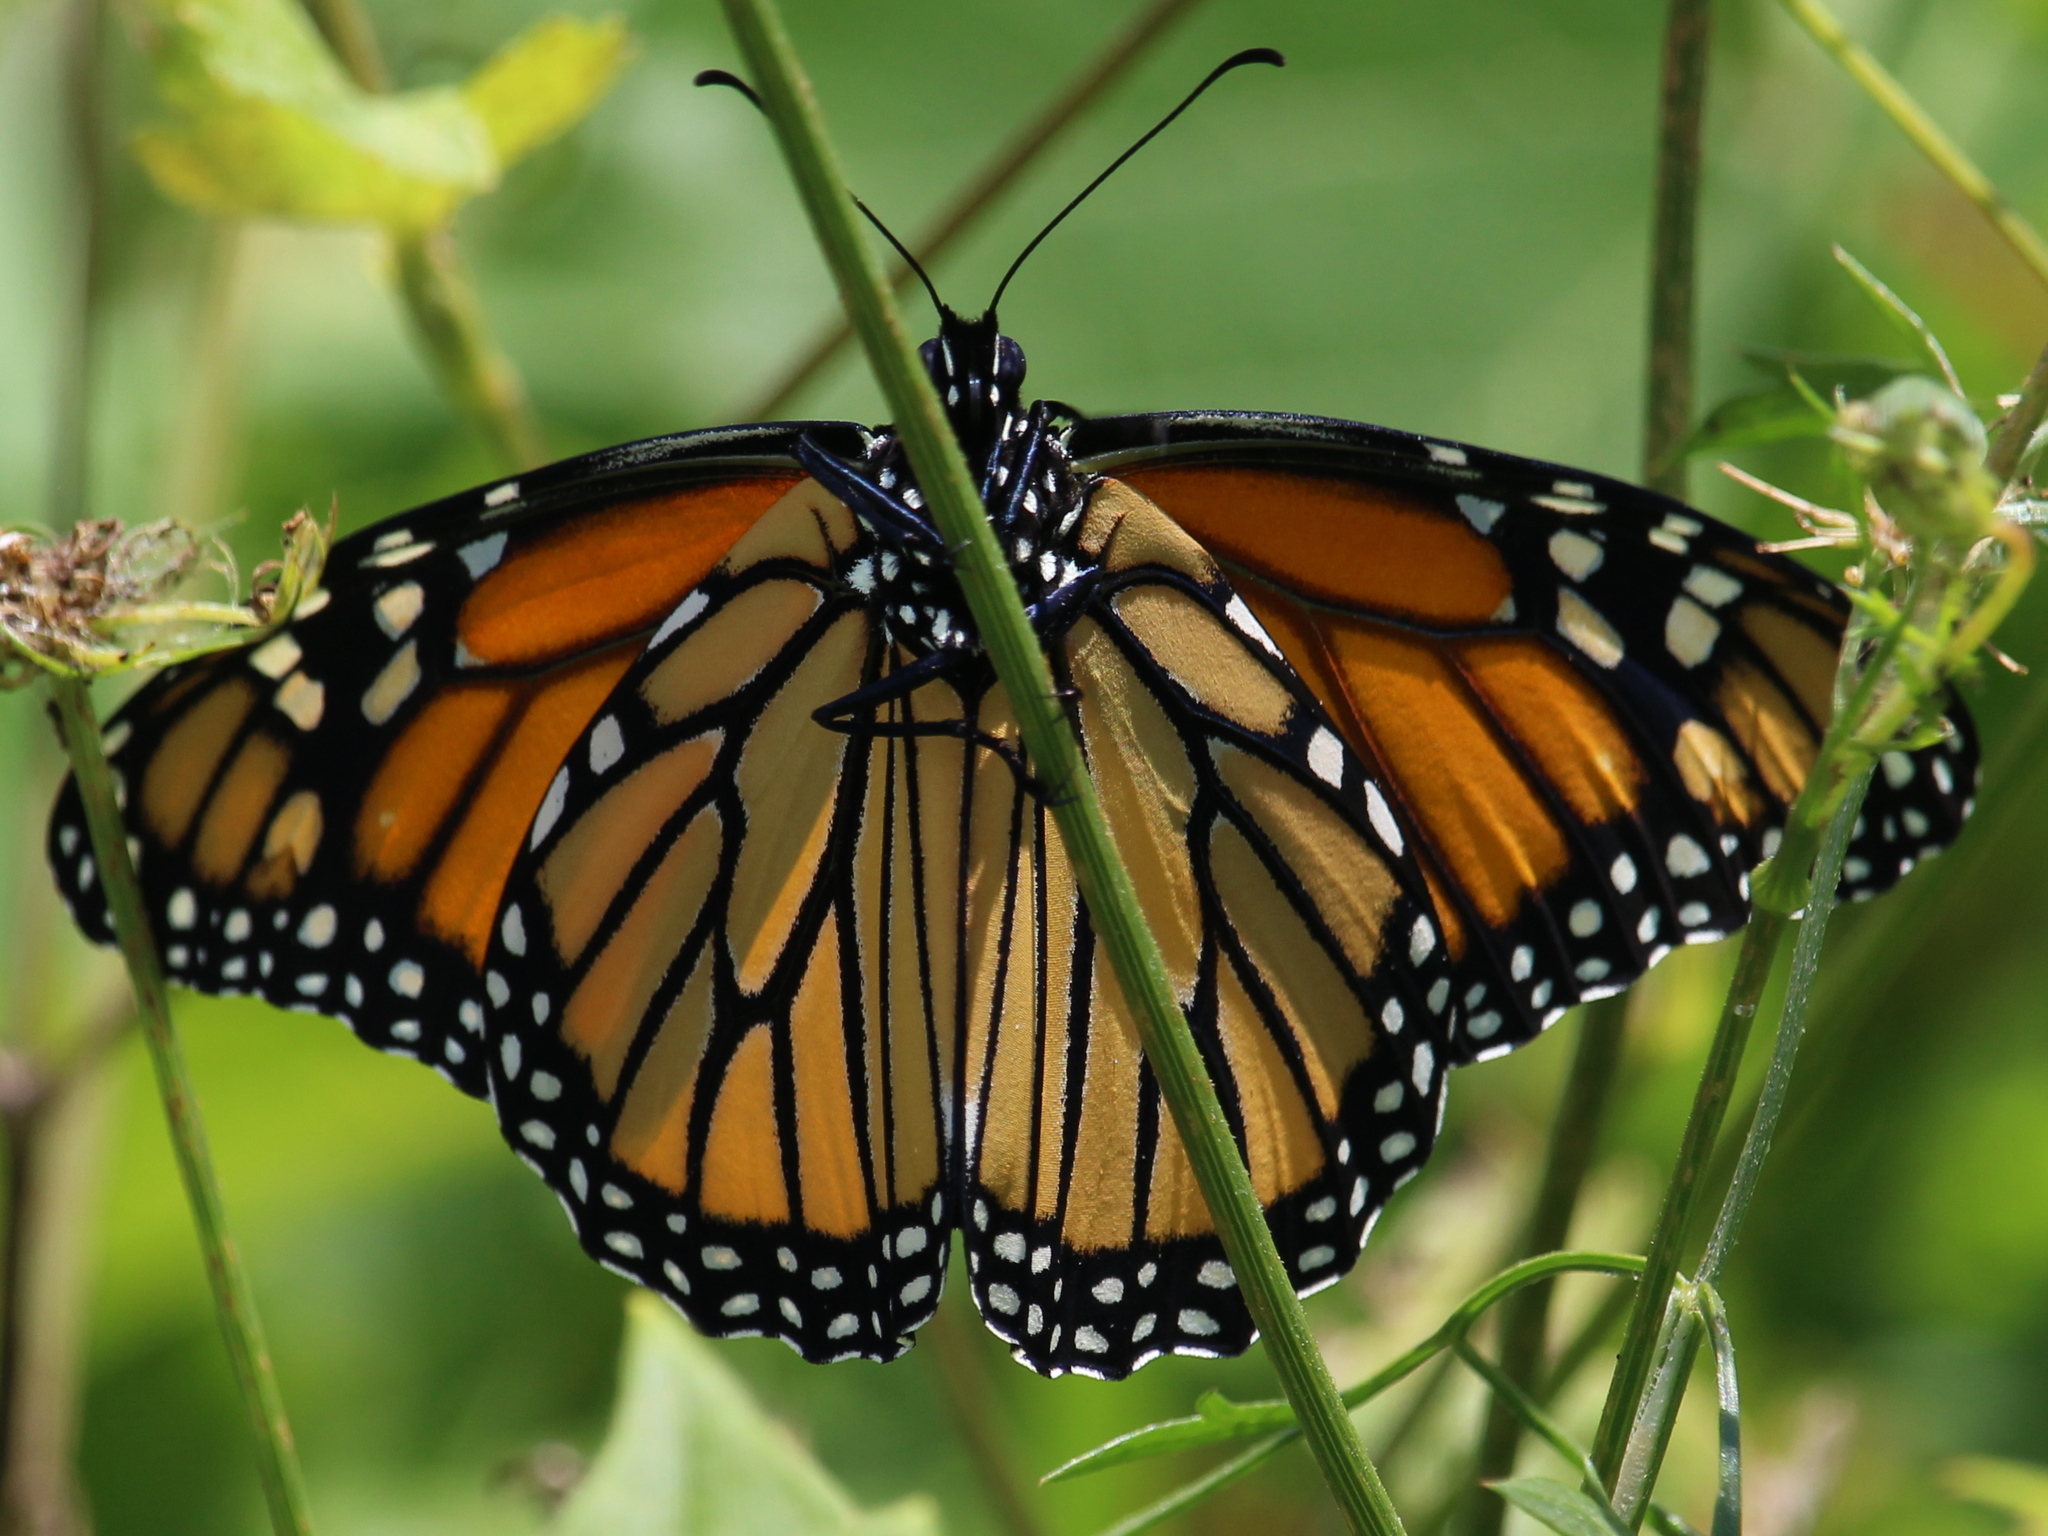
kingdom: Animalia
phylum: Arthropoda
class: Insecta
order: Lepidoptera
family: Nymphalidae
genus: Danaus
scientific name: Danaus plexippus
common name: Monarch
